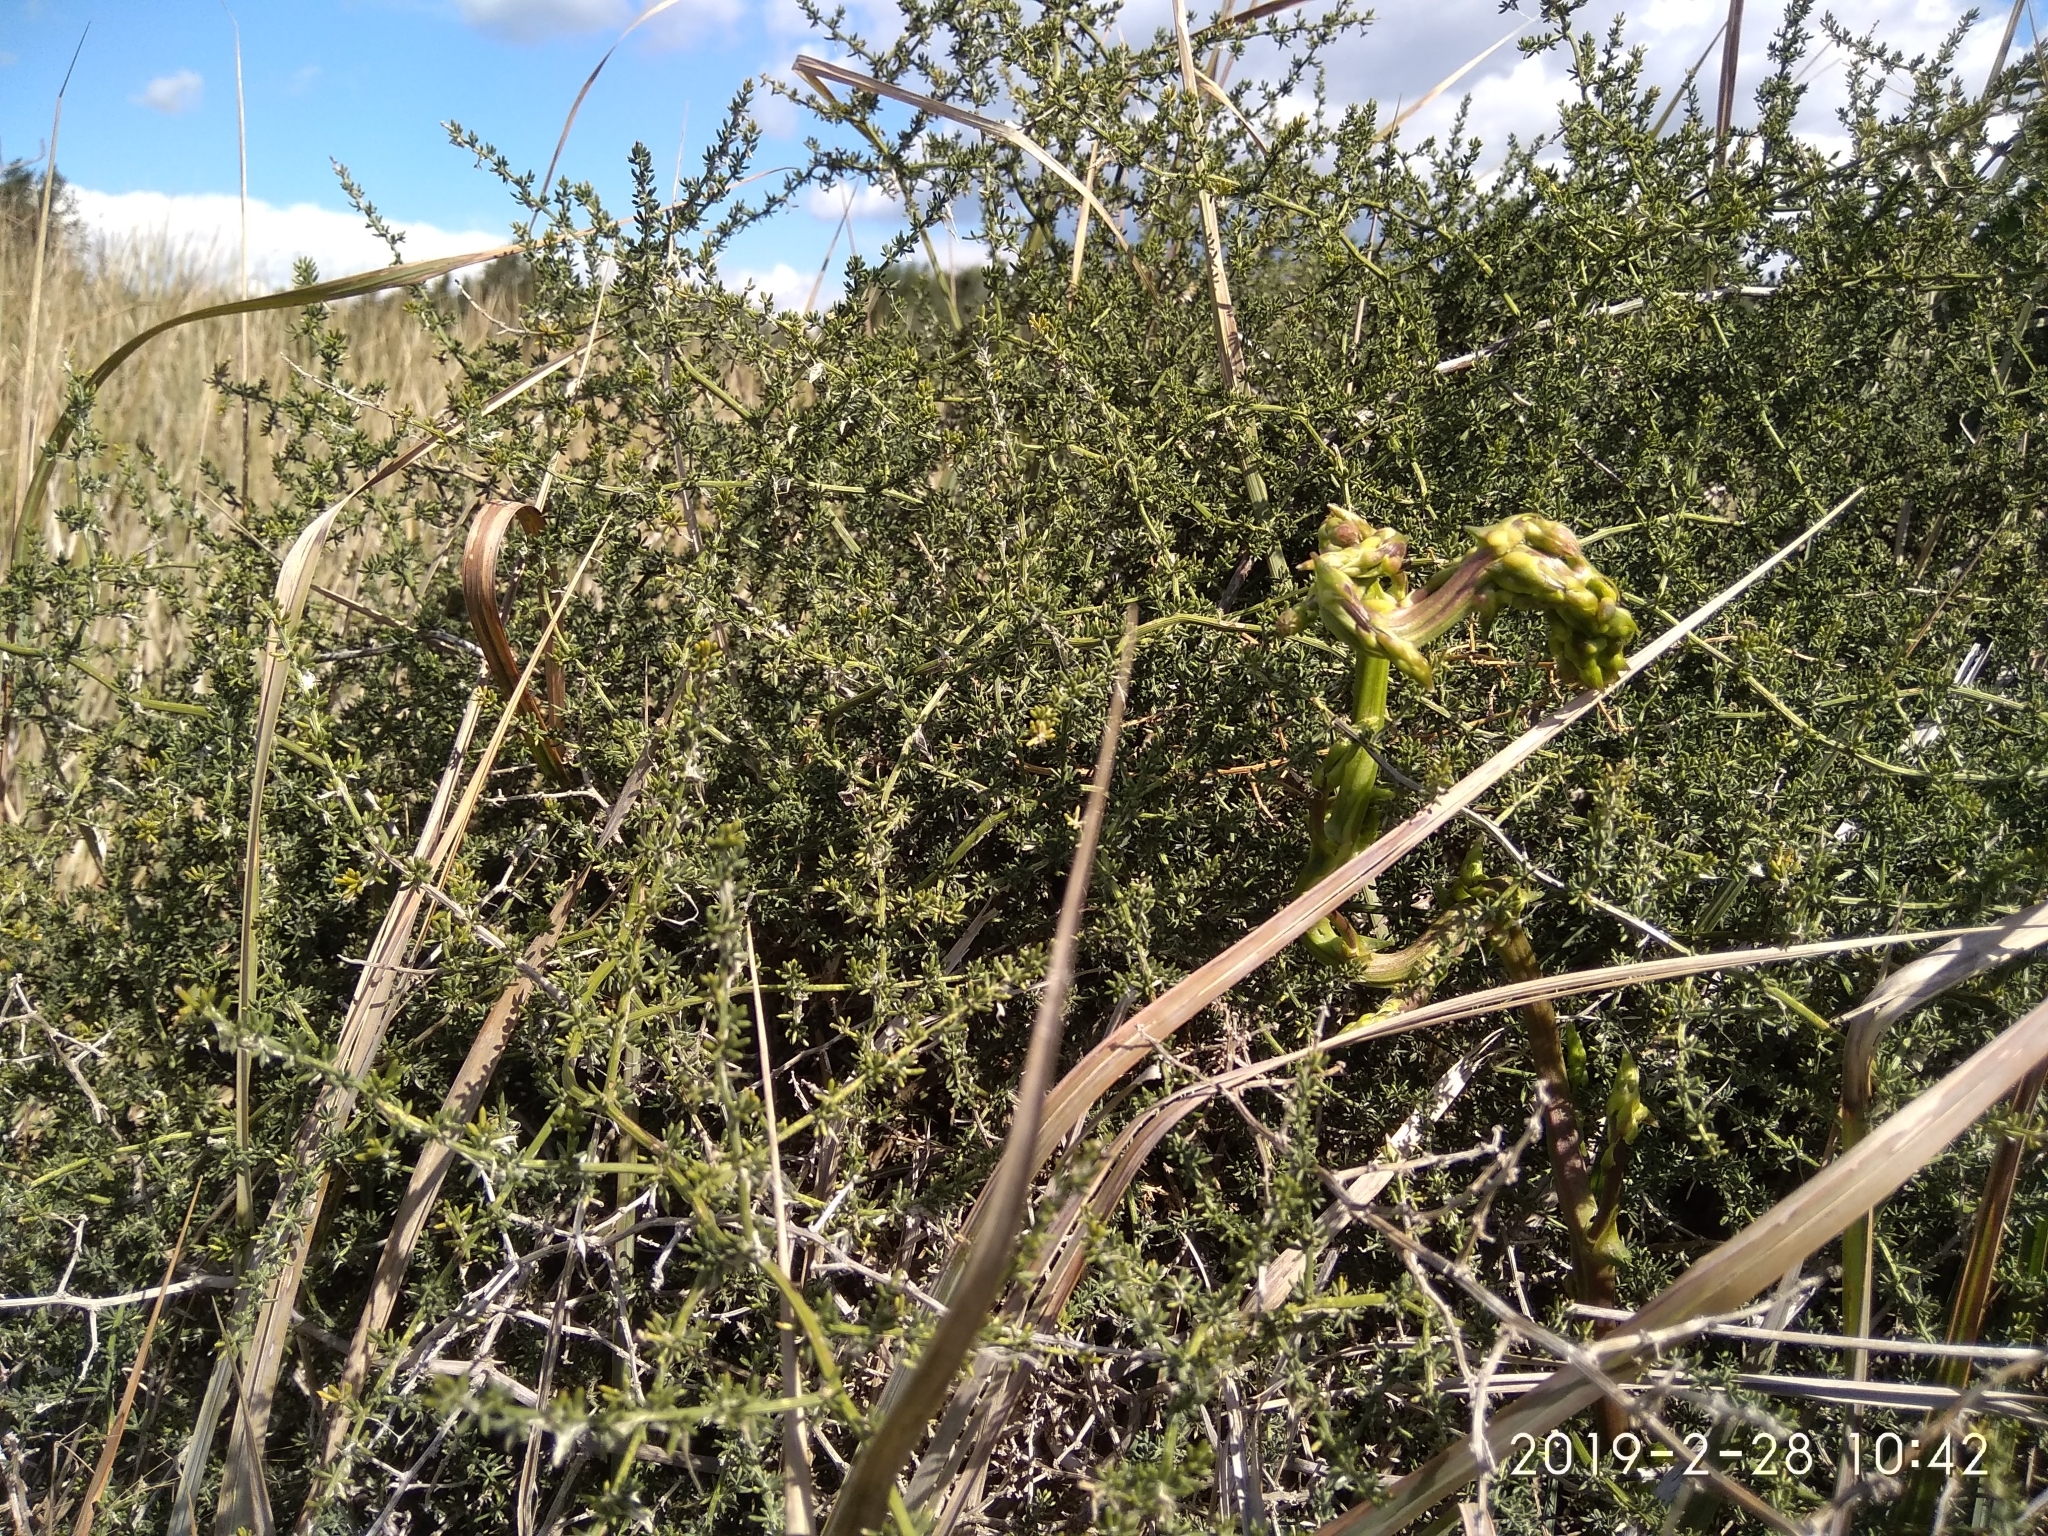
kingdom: Plantae
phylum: Tracheophyta
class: Liliopsida
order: Asparagales
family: Asparagaceae
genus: Asparagus
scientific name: Asparagus acutifolius
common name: Wild asparagus
